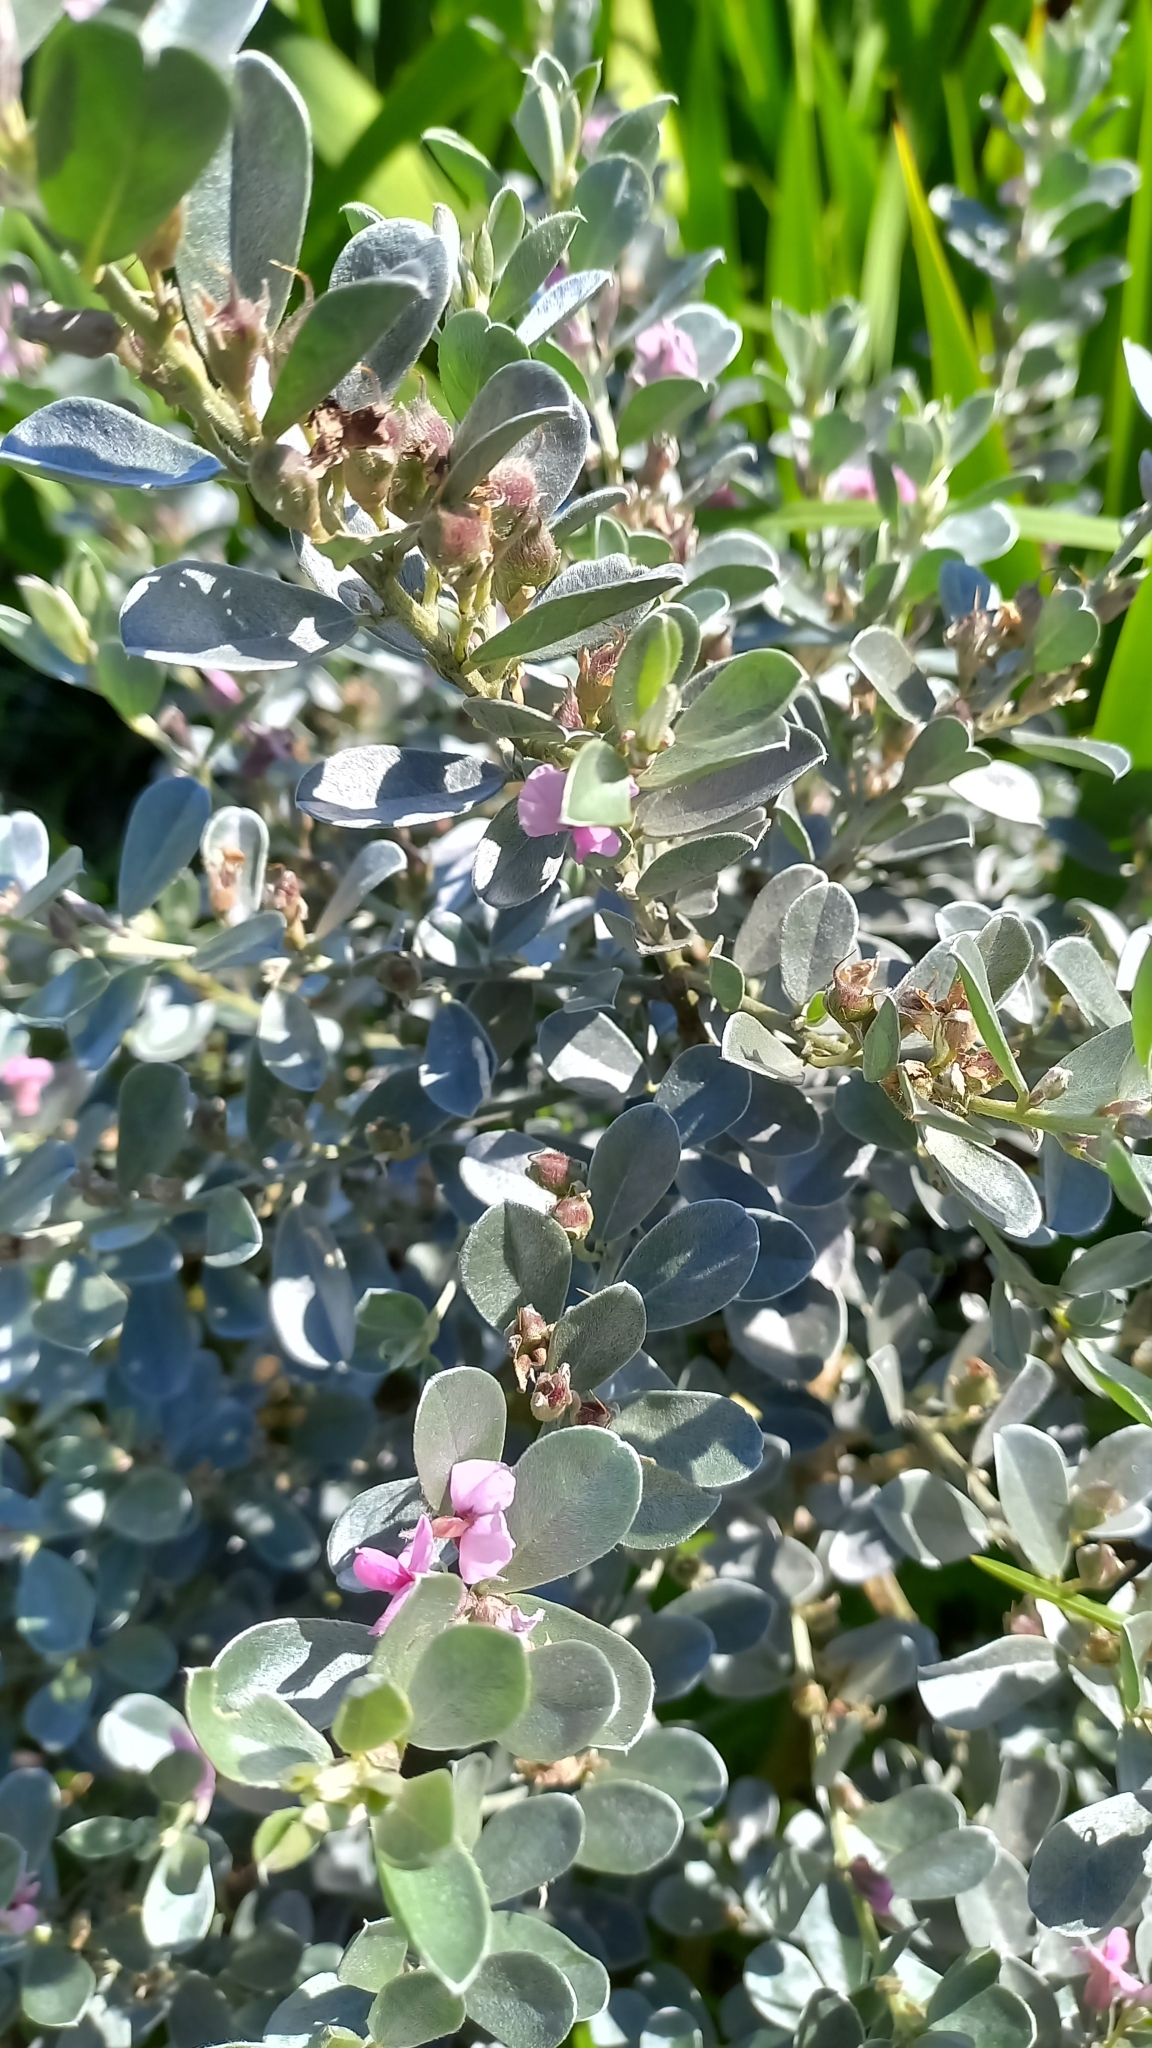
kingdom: Plantae
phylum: Tracheophyta
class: Magnoliopsida
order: Fabales
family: Fabaceae
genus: Podalyria
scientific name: Podalyria sericea
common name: Silver podalyria
